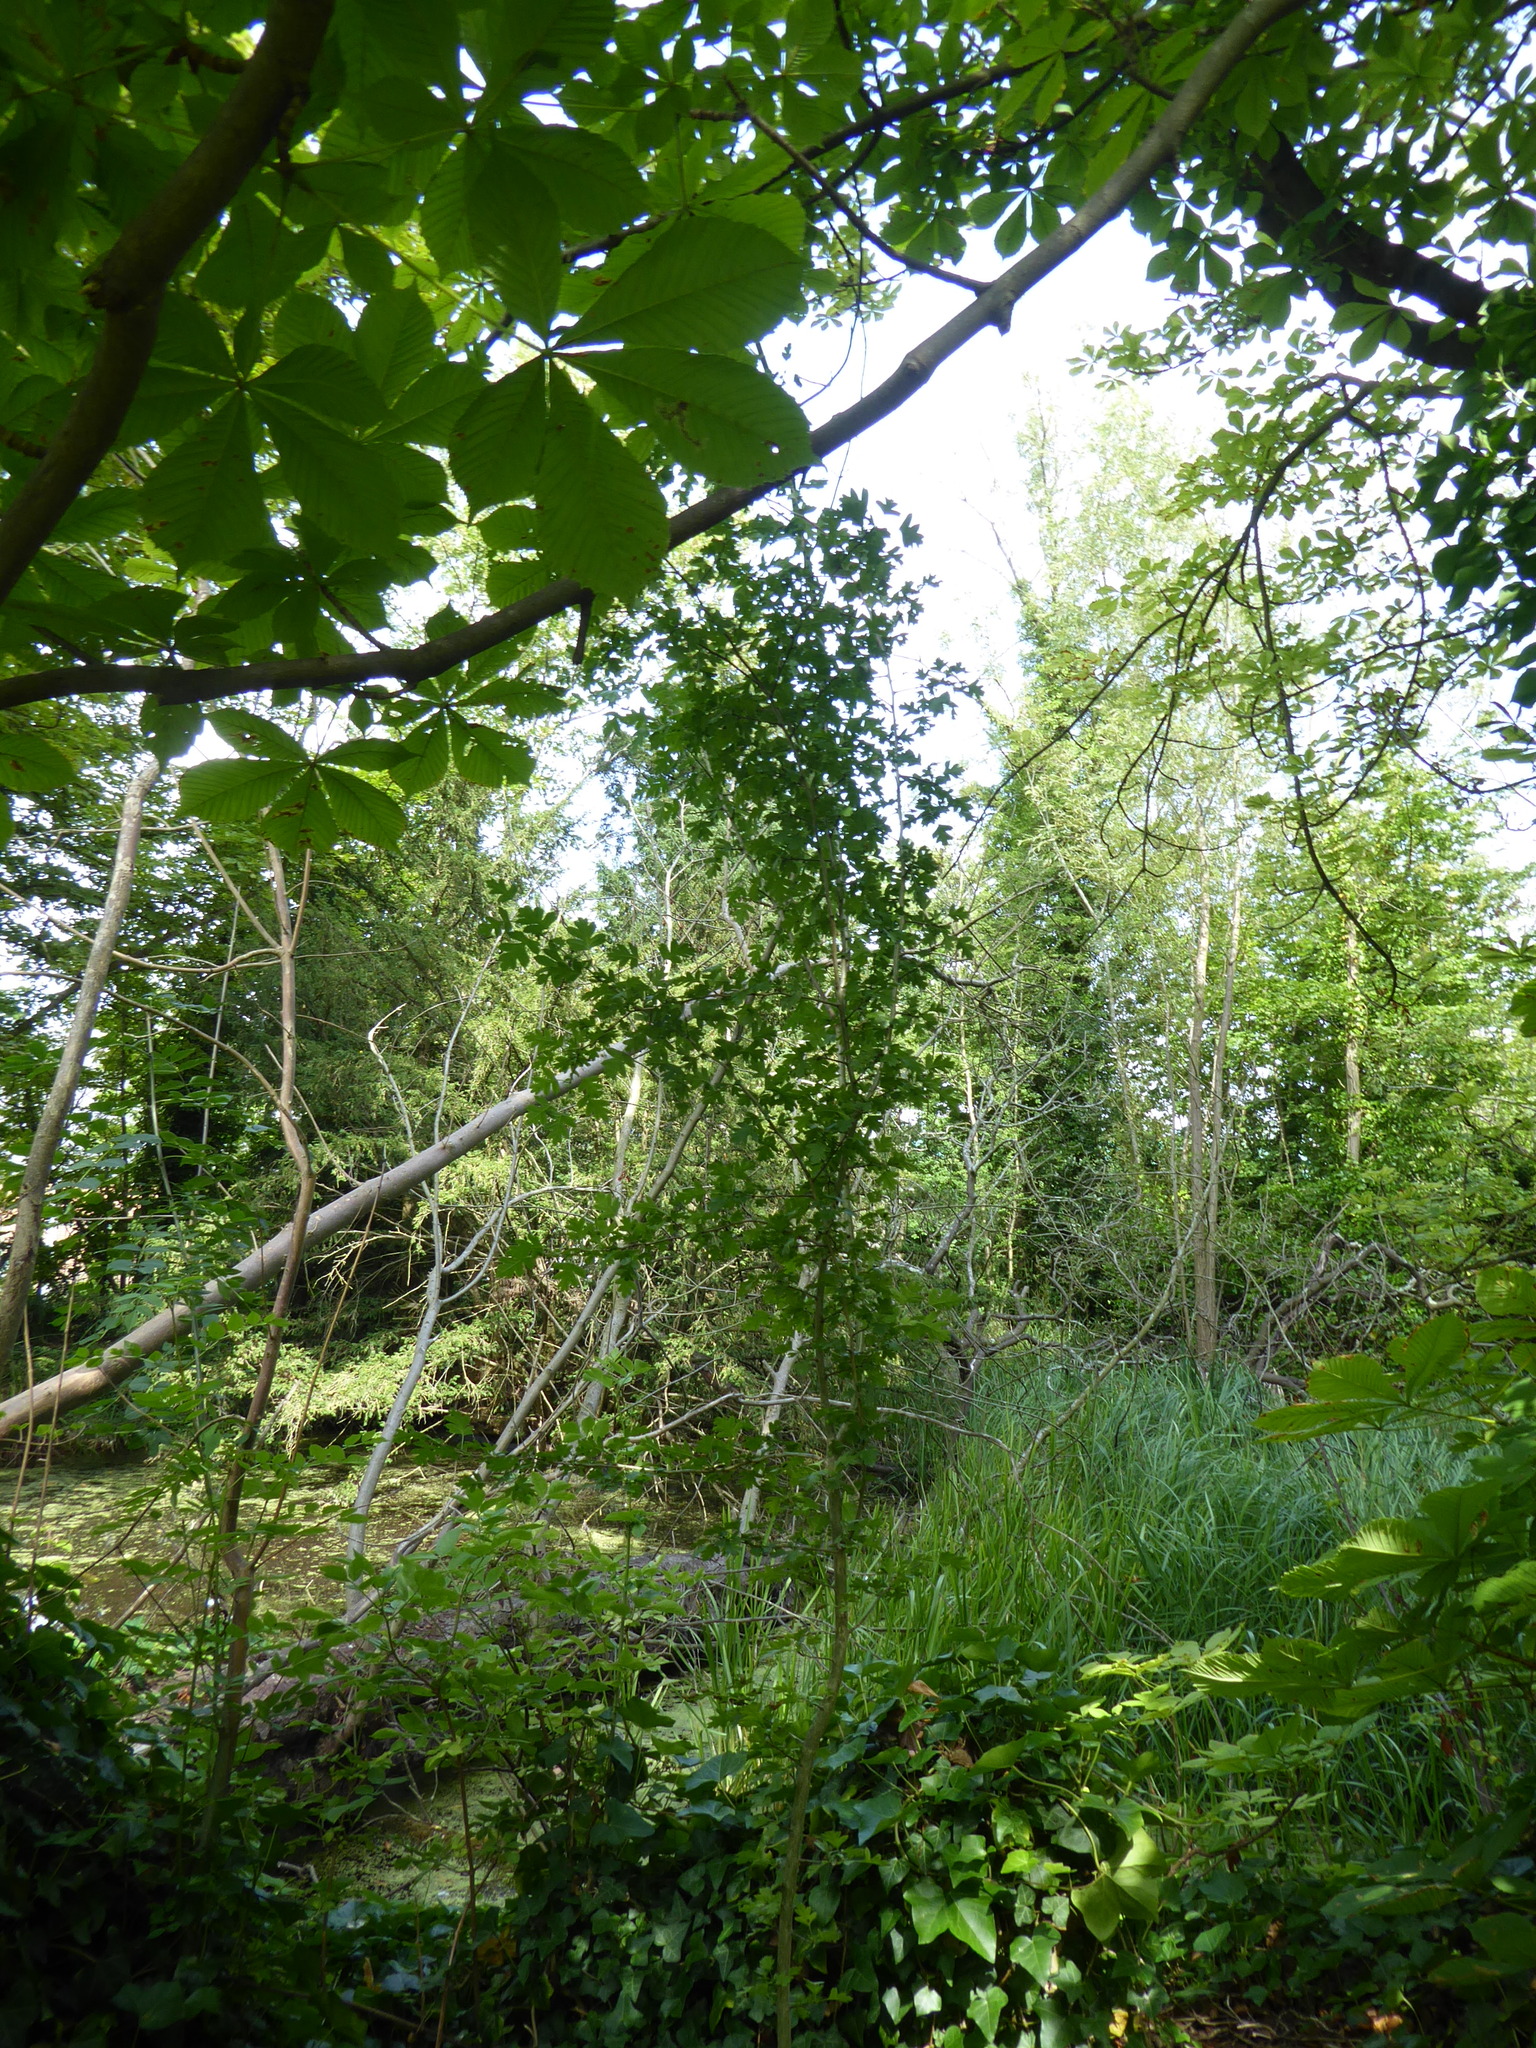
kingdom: Plantae
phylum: Tracheophyta
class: Magnoliopsida
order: Rosales
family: Rosaceae
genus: Crataegus
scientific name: Crataegus monogyna
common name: Hawthorn
